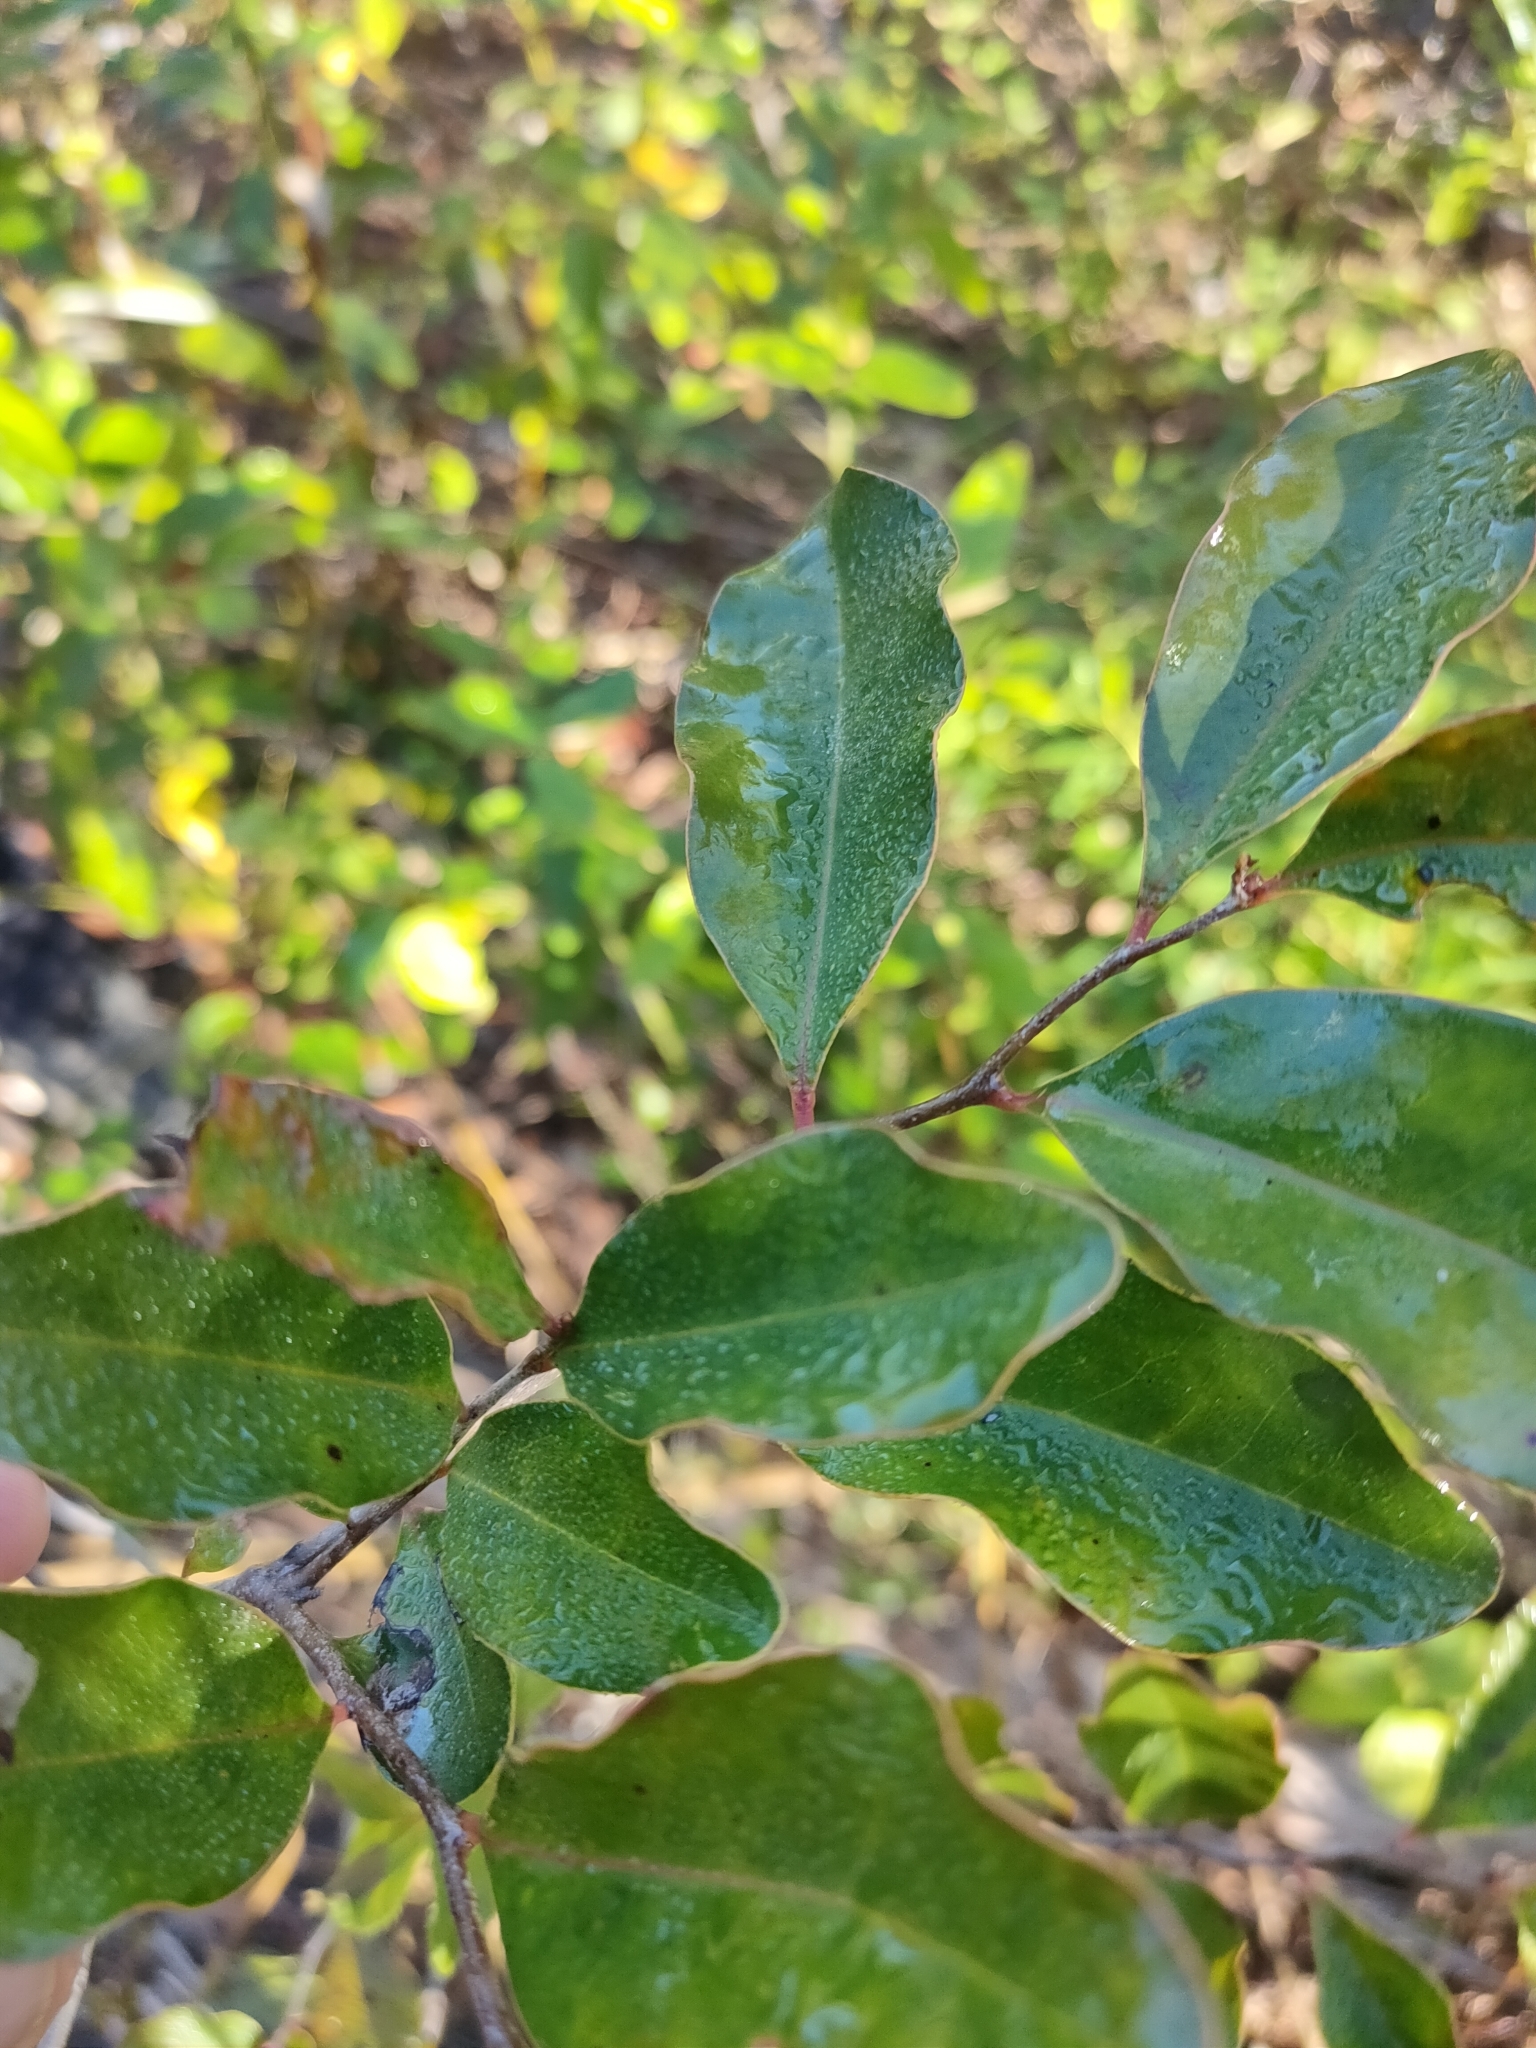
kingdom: Plantae
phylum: Tracheophyta
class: Magnoliopsida
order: Ericales
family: Ebenaceae
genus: Diospyros
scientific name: Diospyros geminata
